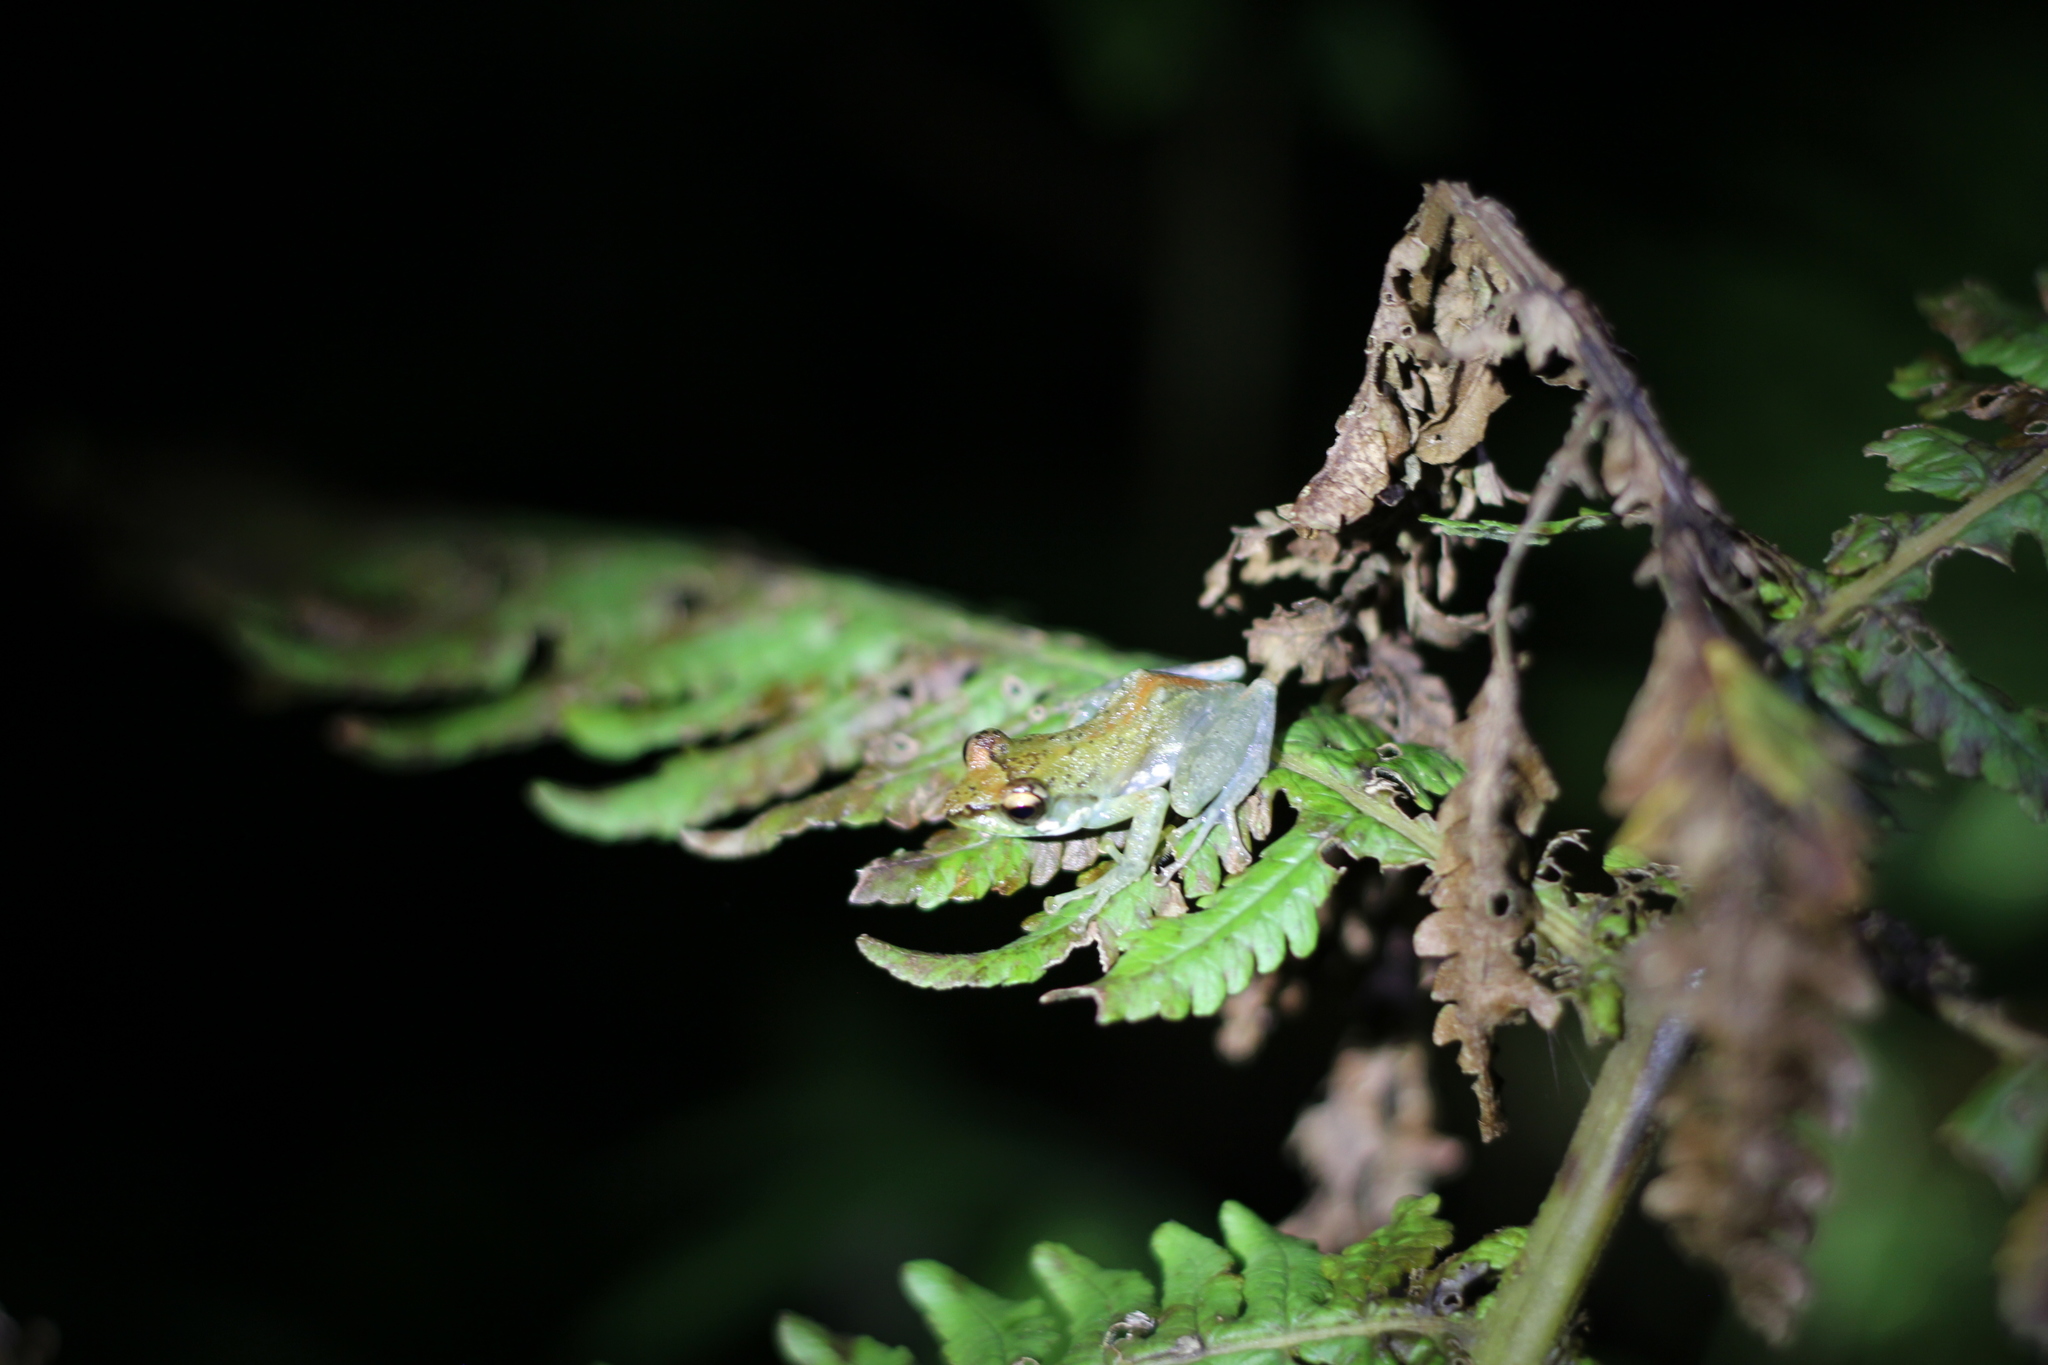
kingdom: Animalia
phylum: Chordata
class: Amphibia
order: Anura
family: Mantellidae
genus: Guibemantis
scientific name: Guibemantis liber
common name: Free madagascar frog
